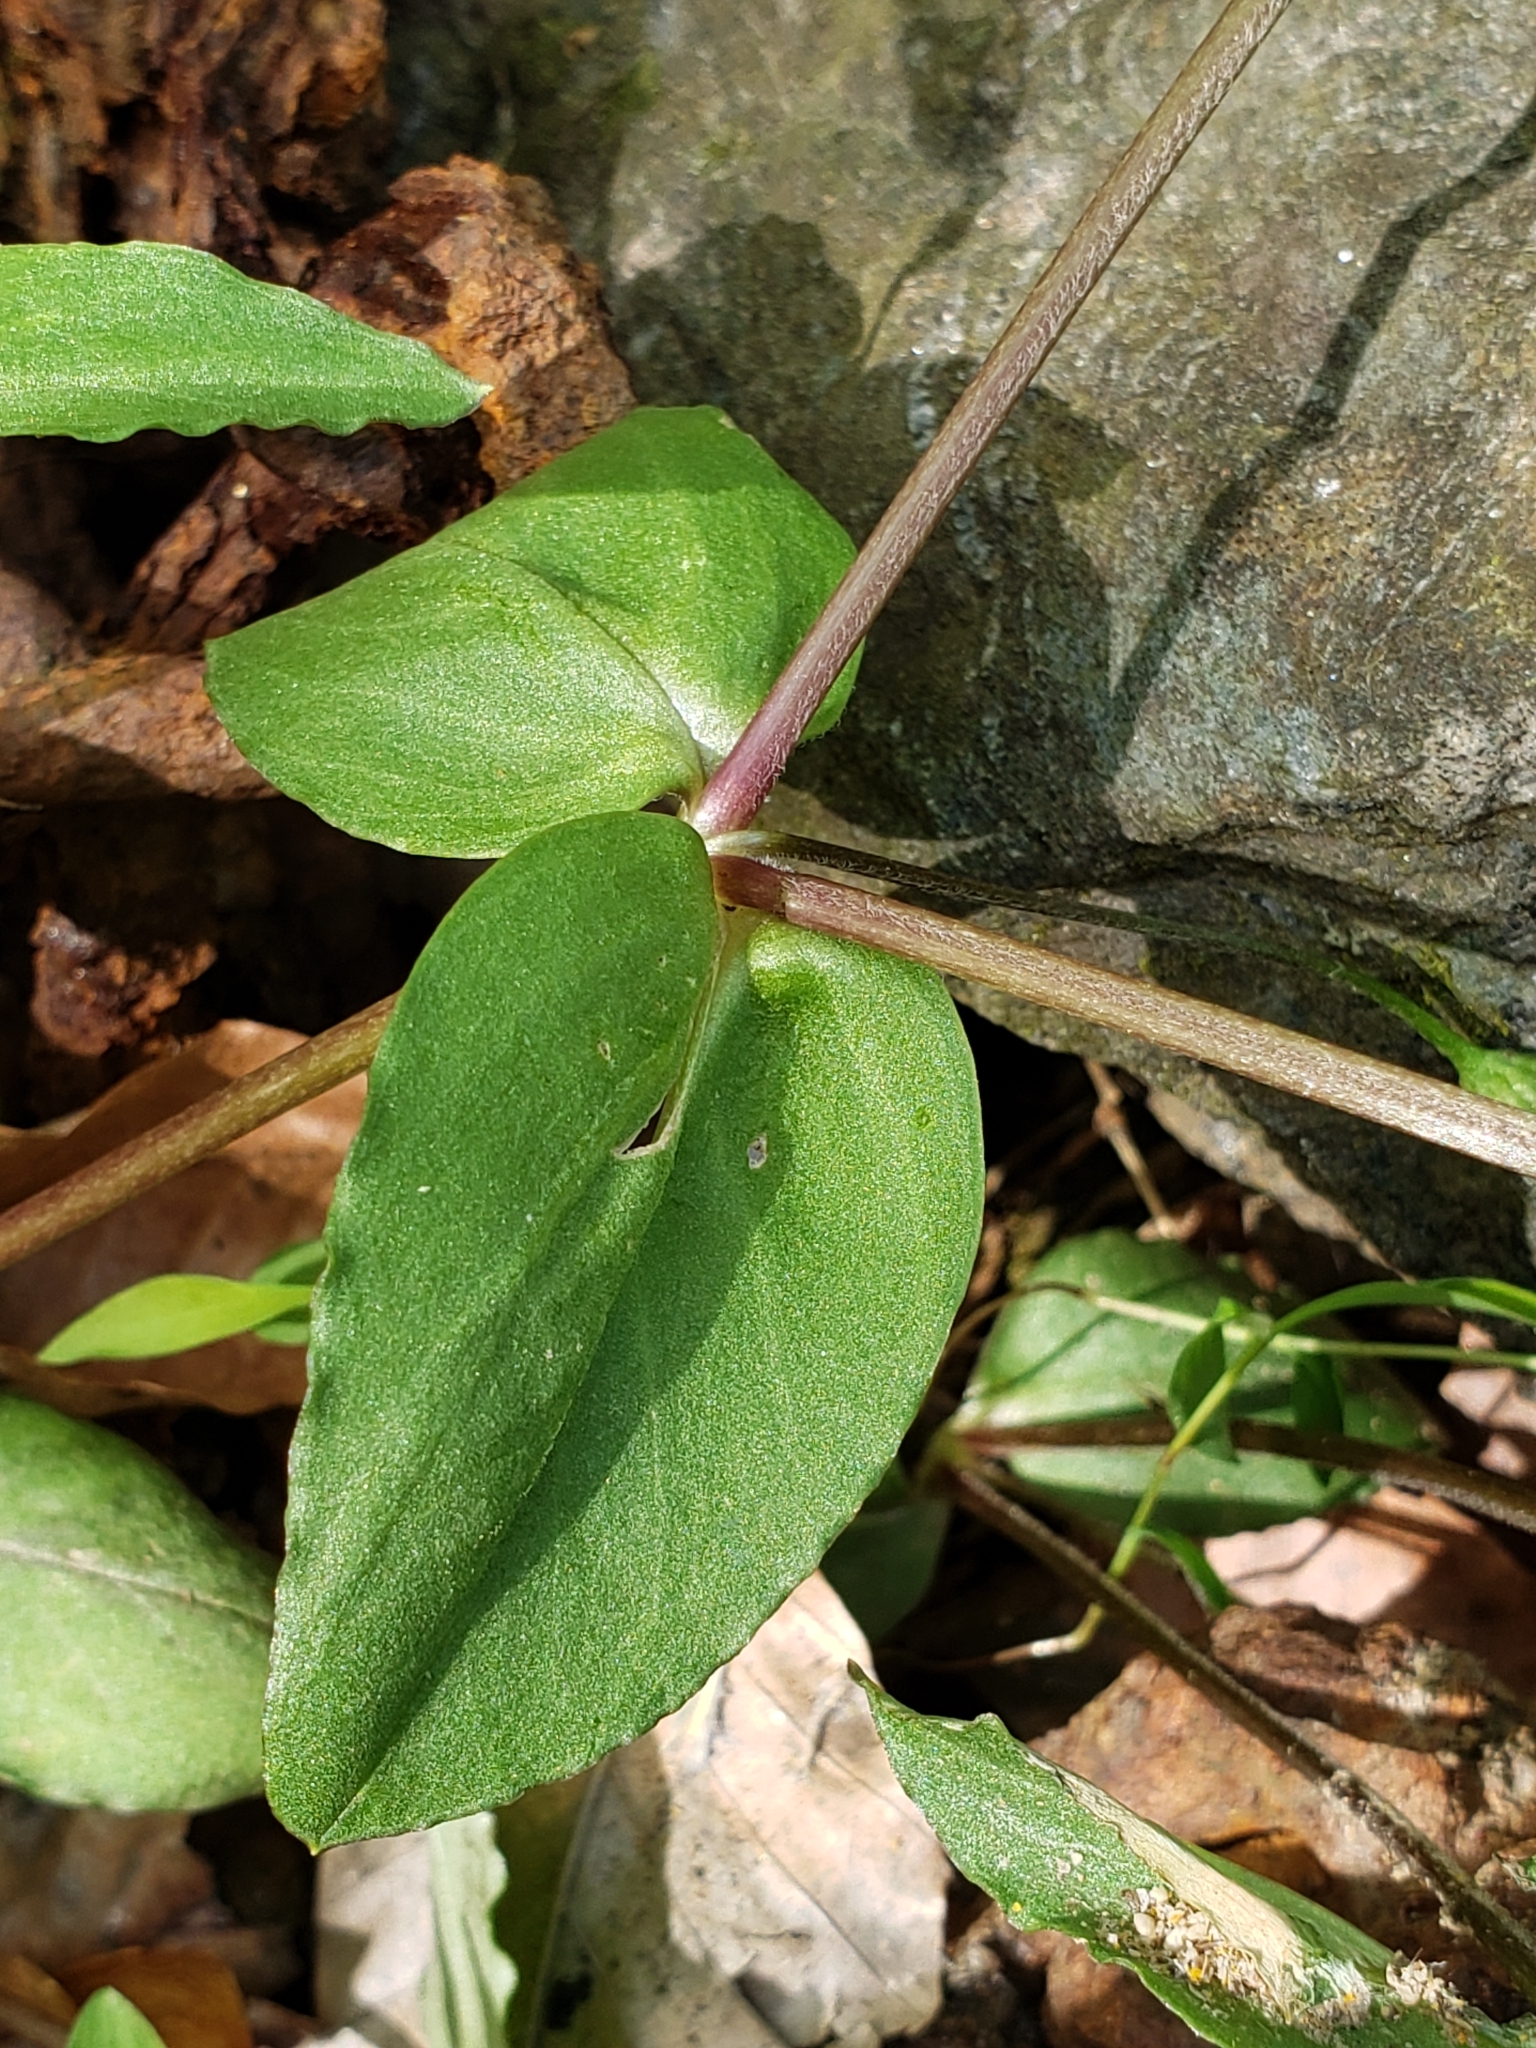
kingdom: Plantae
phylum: Tracheophyta
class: Magnoliopsida
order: Caryophyllales
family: Caryophyllaceae
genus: Stellaria
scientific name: Stellaria pubera
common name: Star chickweed
